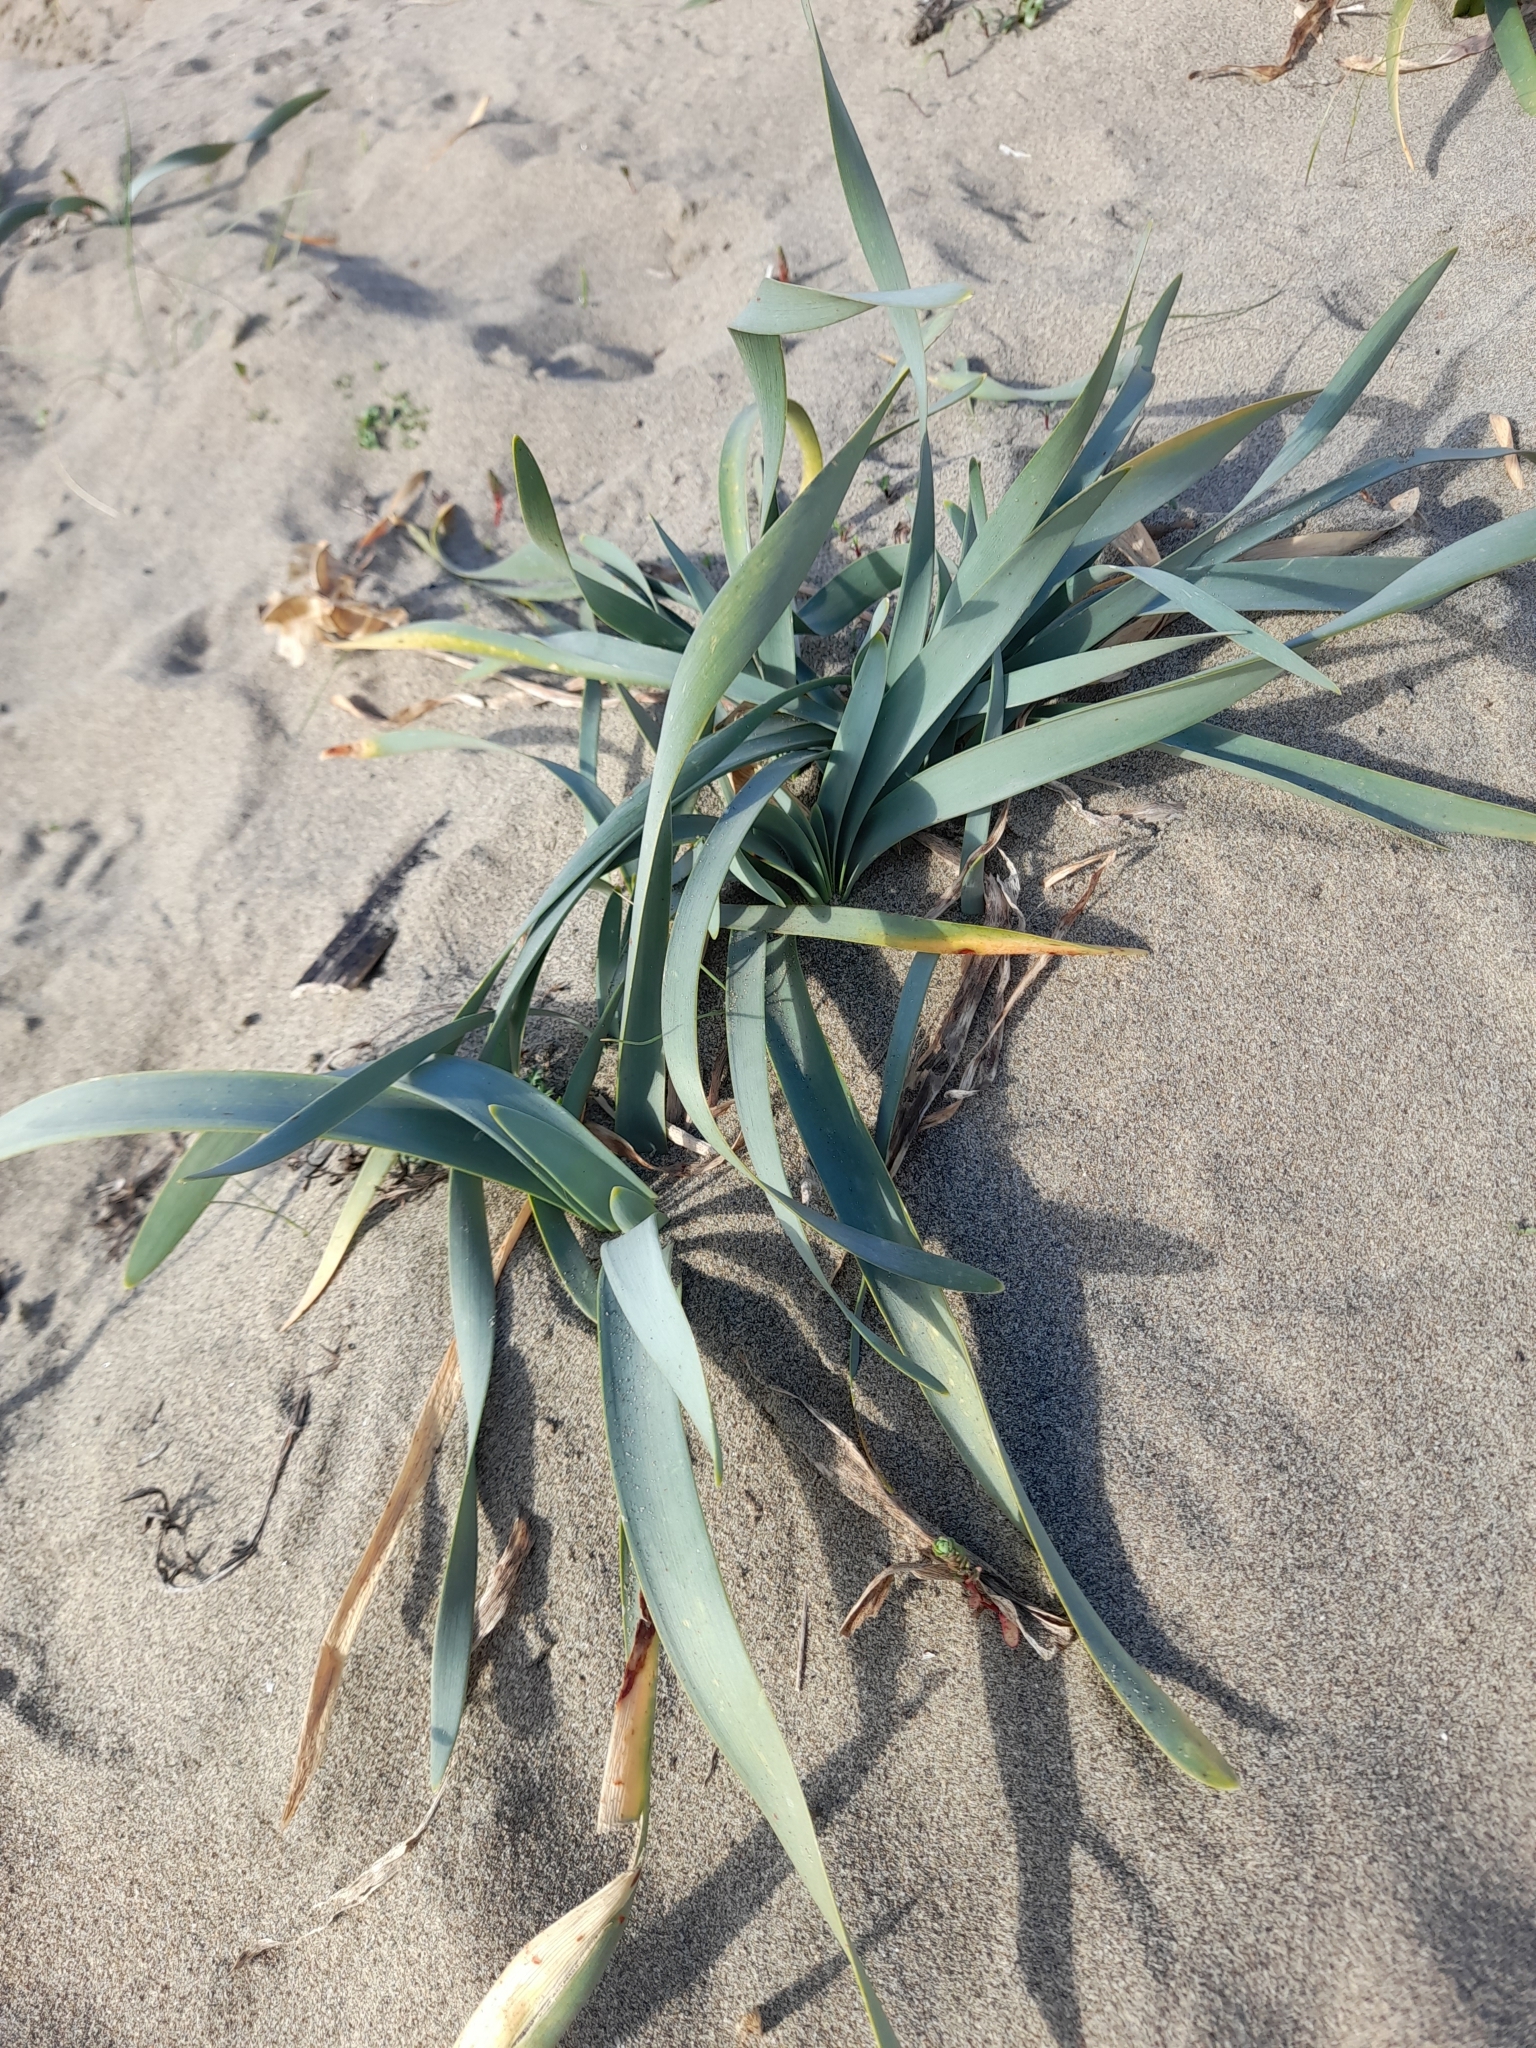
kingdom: Plantae
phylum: Tracheophyta
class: Liliopsida
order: Asparagales
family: Amaryllidaceae
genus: Pancratium
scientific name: Pancratium maritimum
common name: Sea-daffodil
